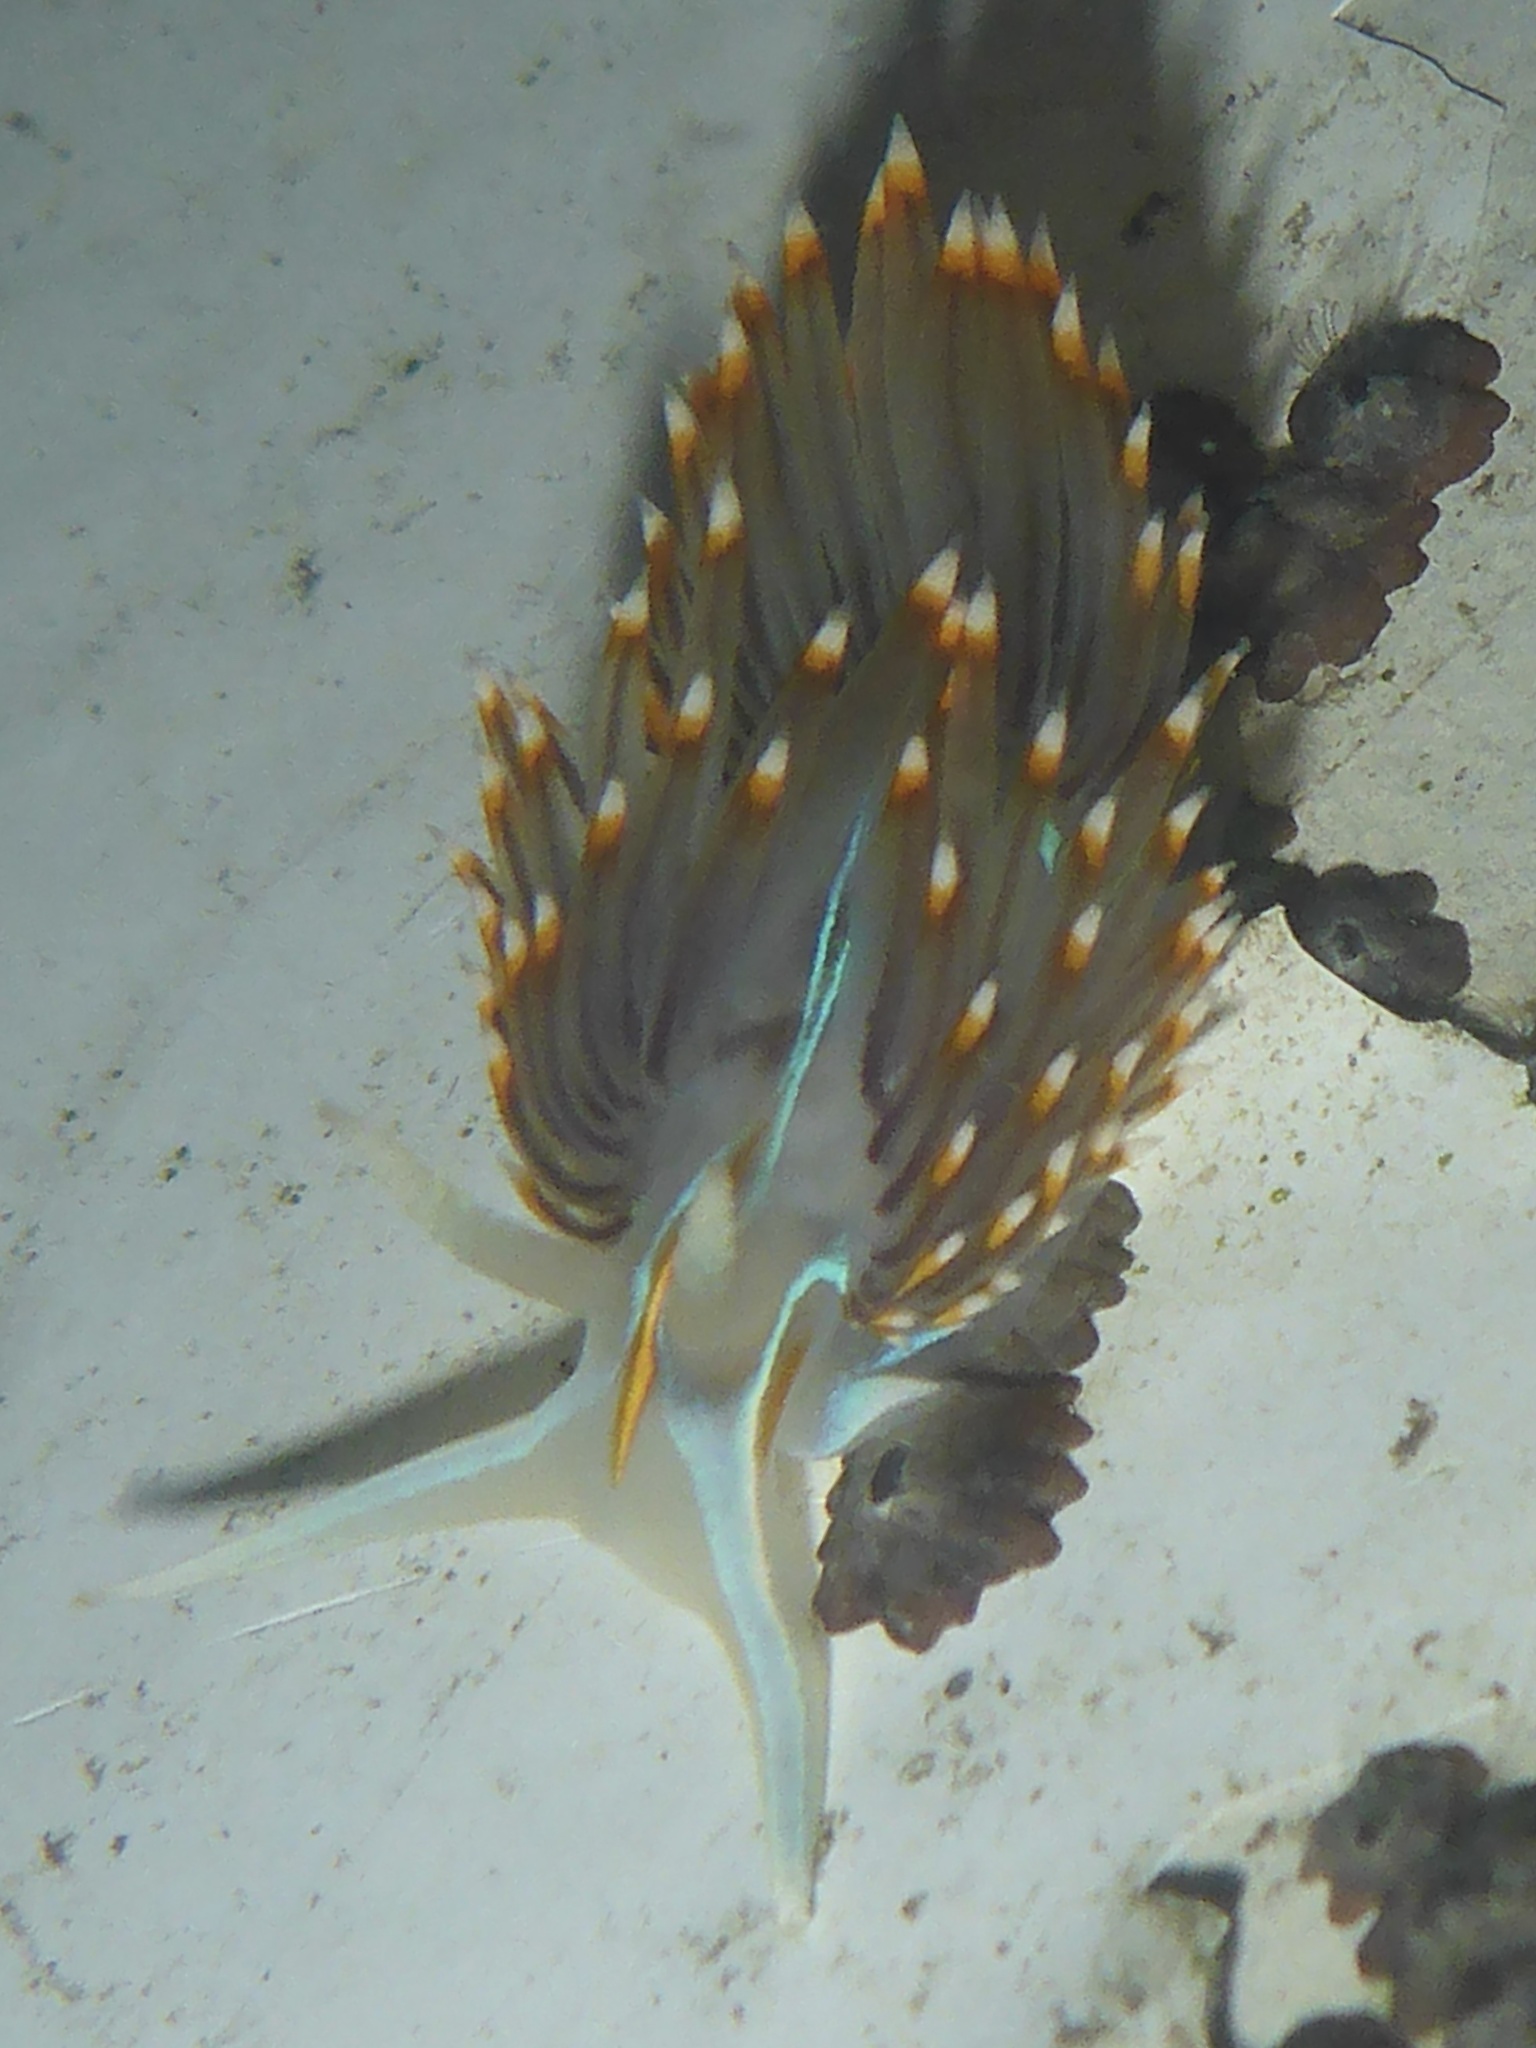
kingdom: Animalia
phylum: Mollusca
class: Gastropoda
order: Nudibranchia
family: Myrrhinidae
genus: Hermissenda
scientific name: Hermissenda opalescens
